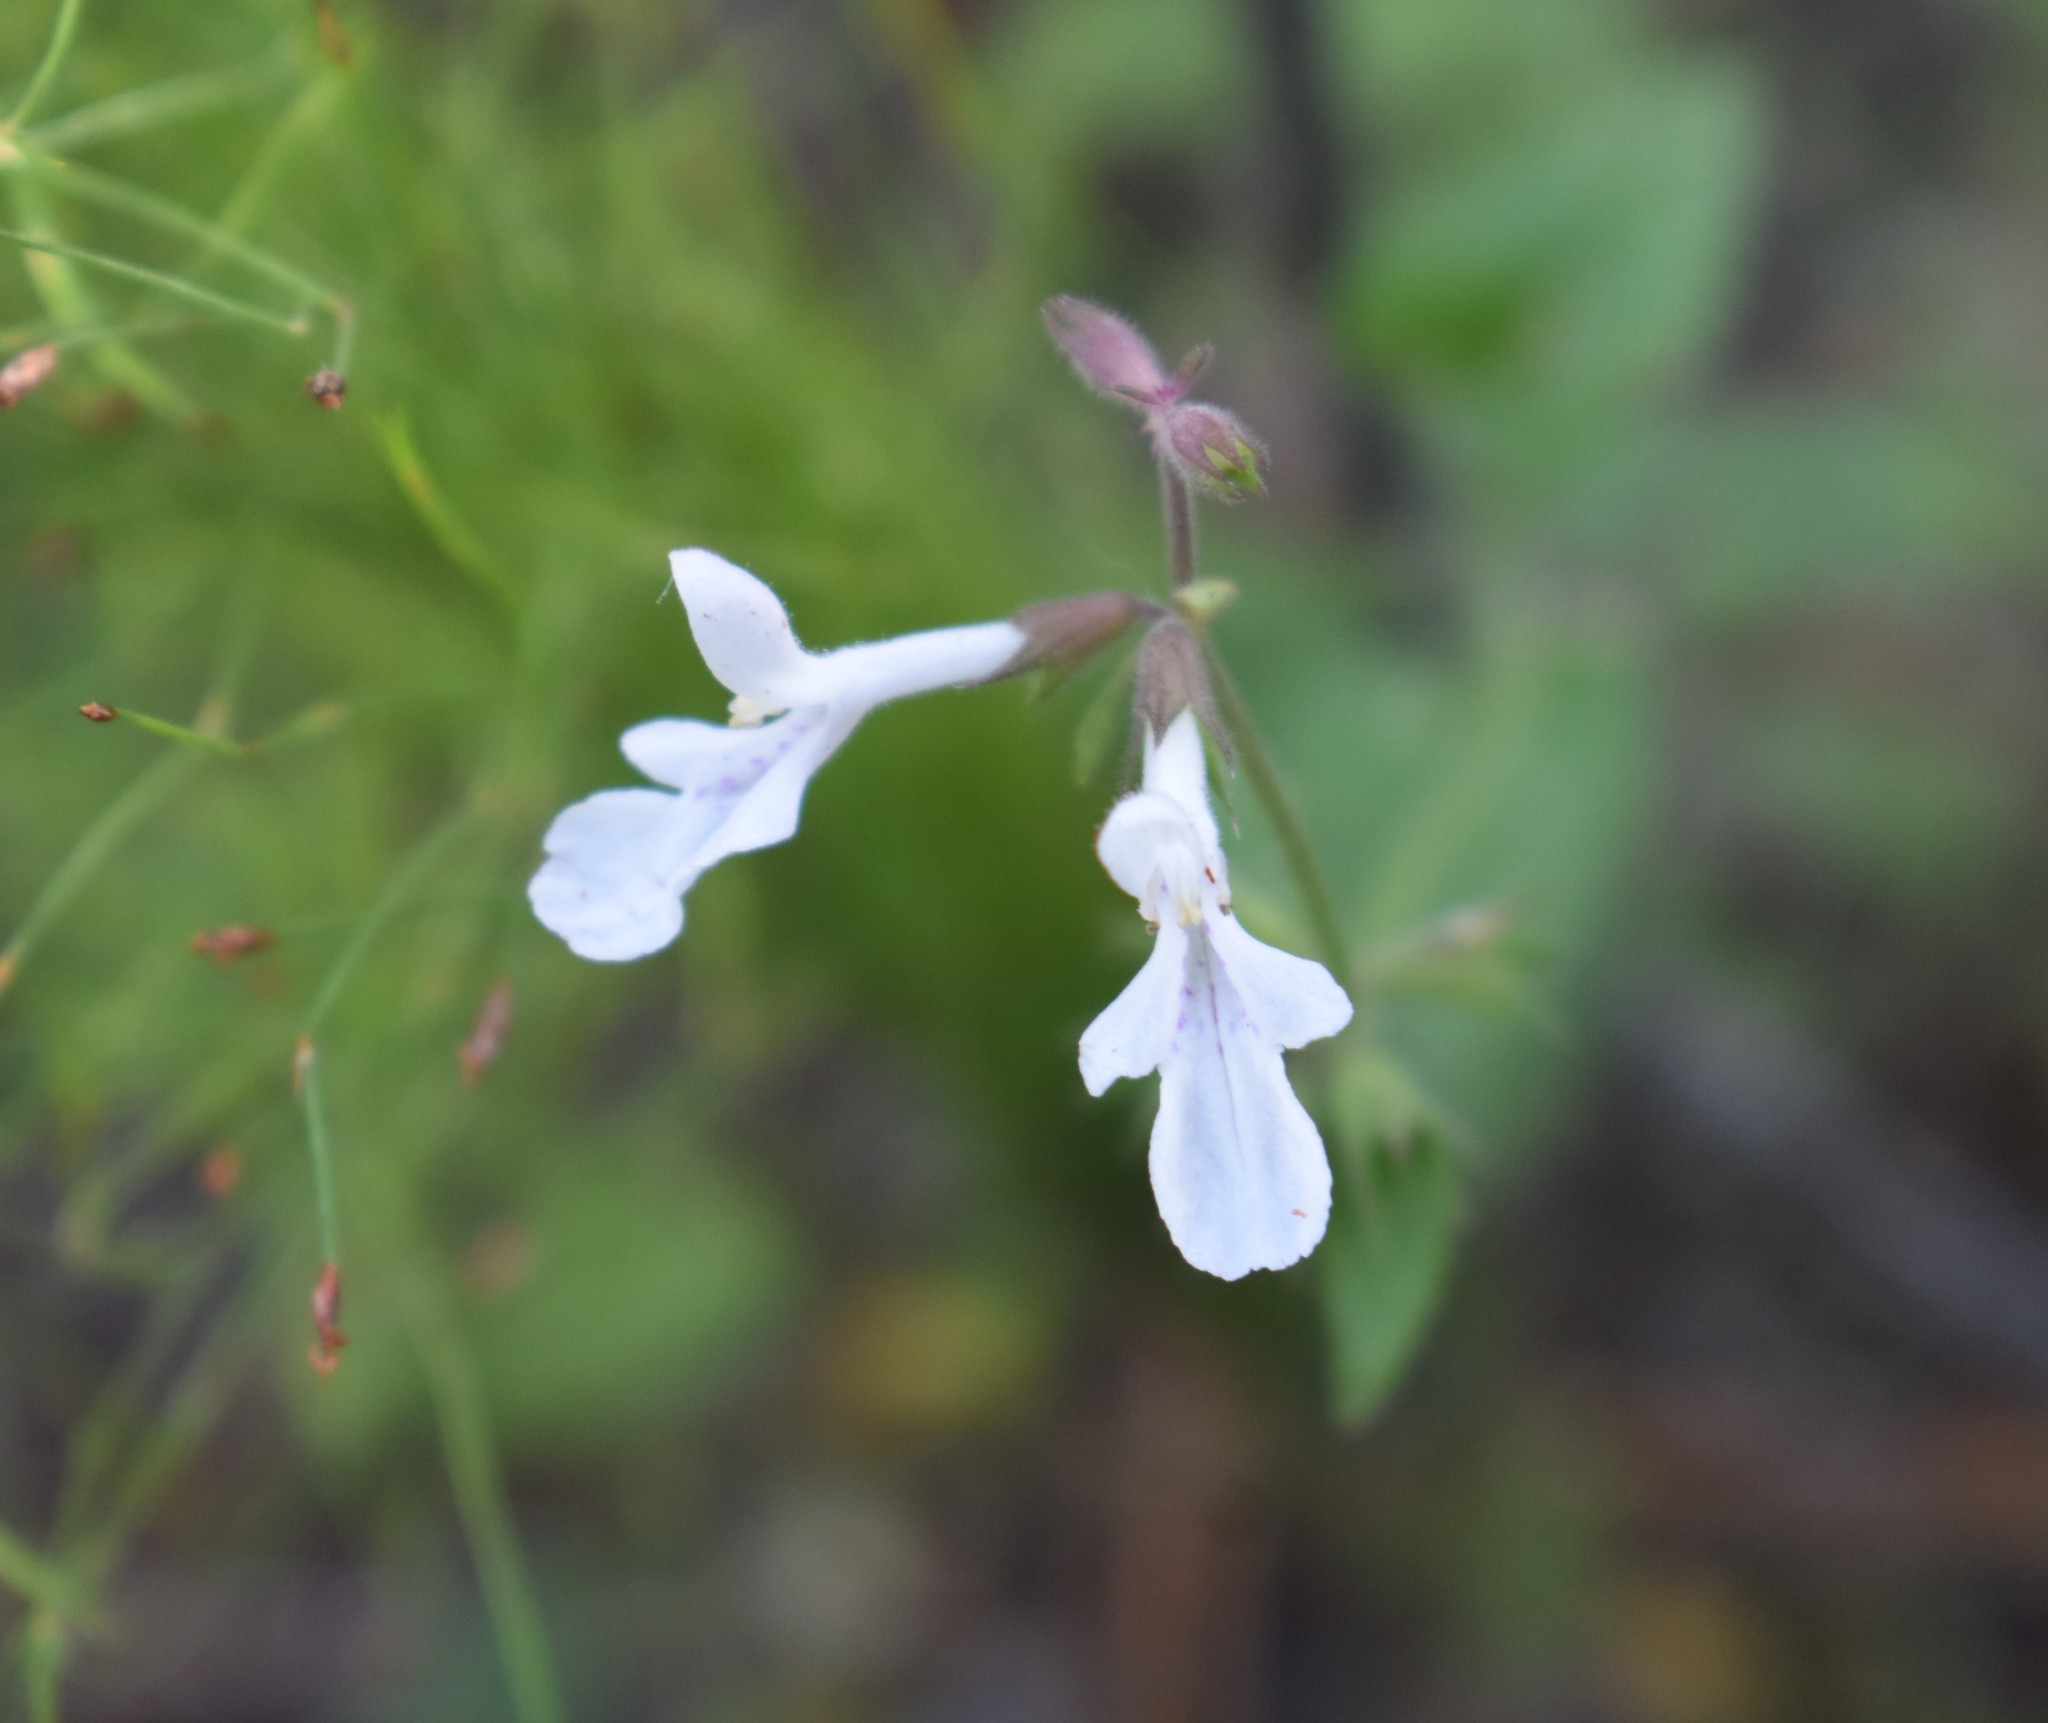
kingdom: Plantae
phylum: Tracheophyta
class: Magnoliopsida
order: Lamiales
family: Lamiaceae
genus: Stachys
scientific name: Stachys aethiopica
